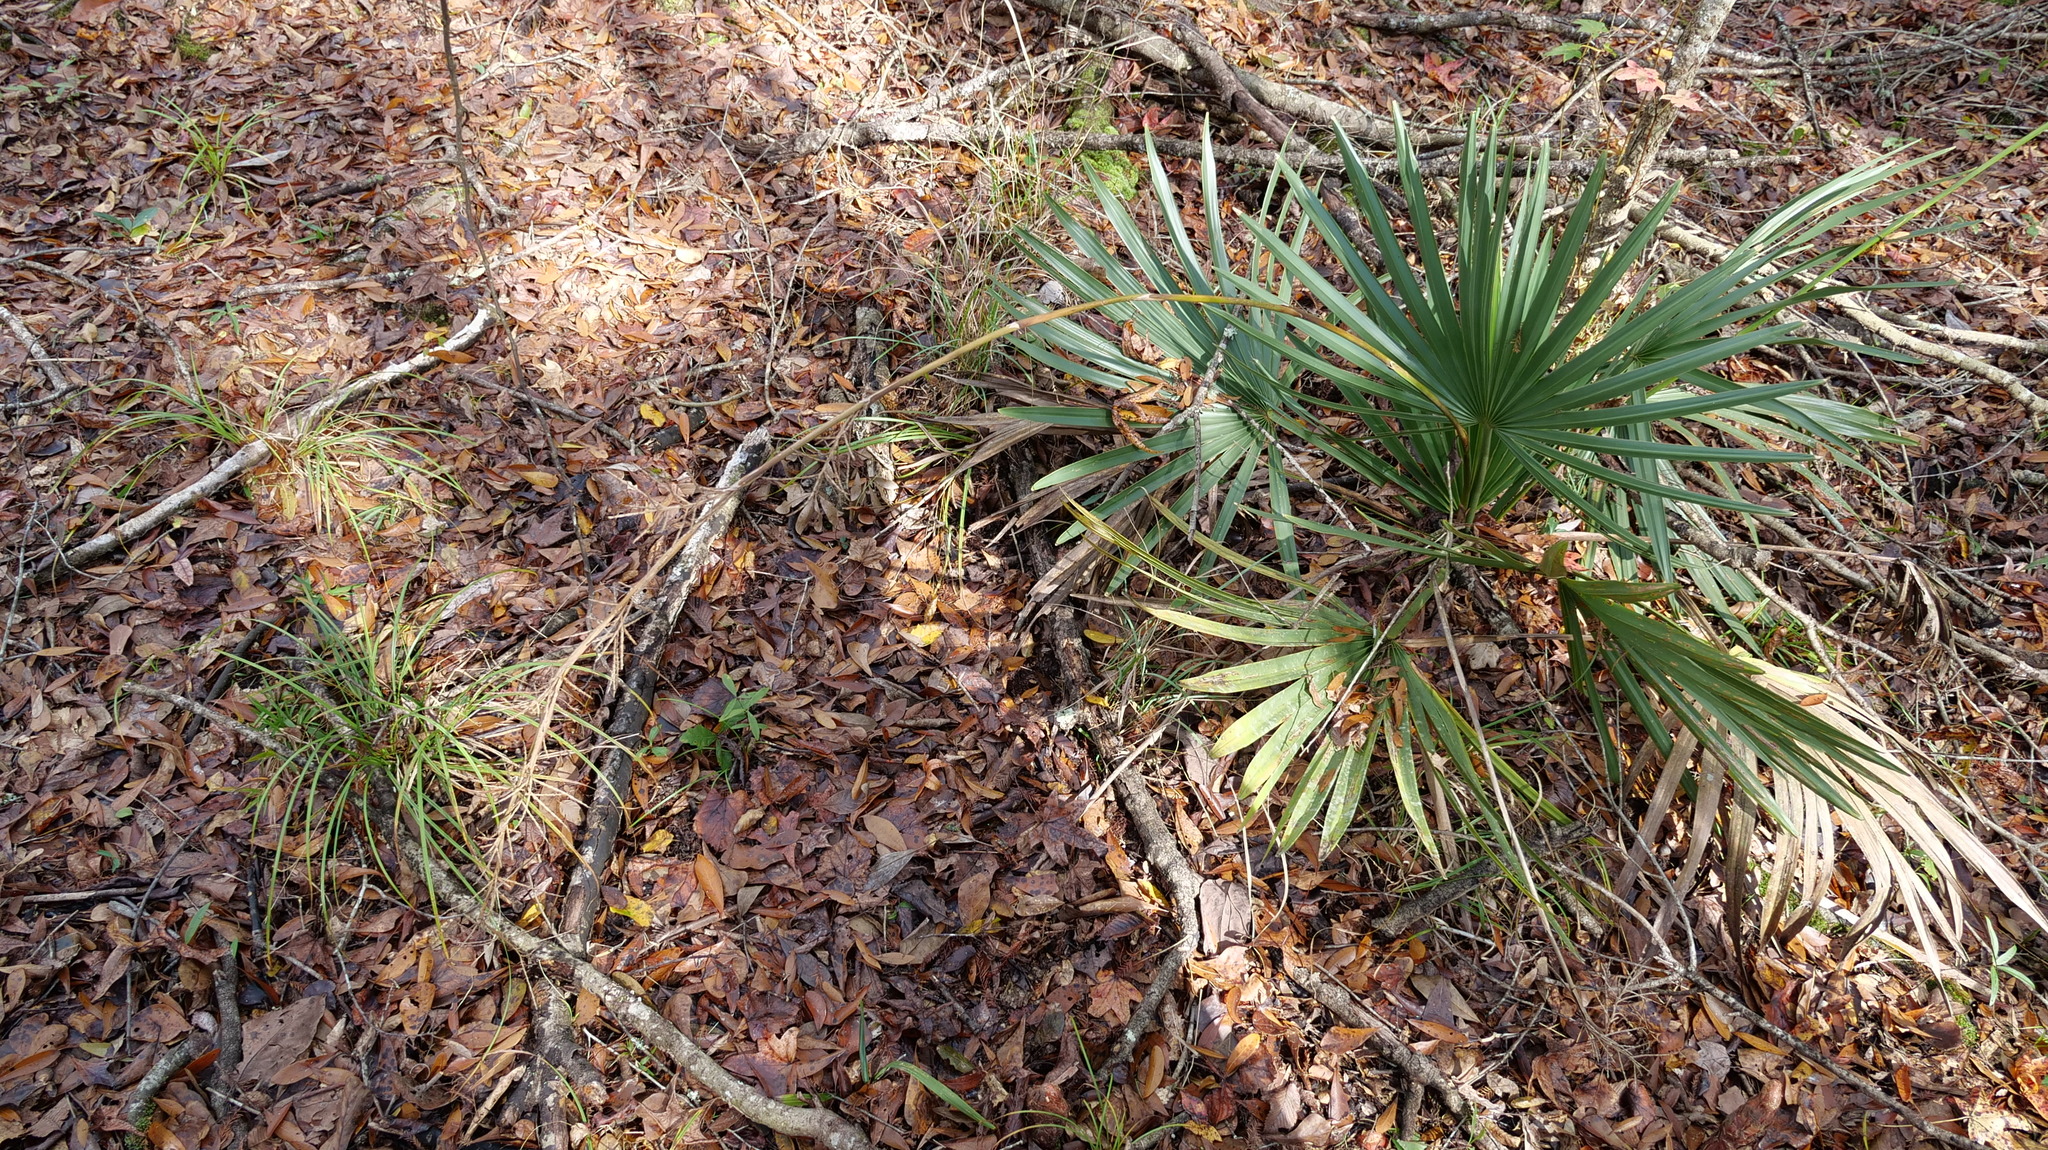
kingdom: Plantae
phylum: Tracheophyta
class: Liliopsida
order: Arecales
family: Arecaceae
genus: Sabal
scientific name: Sabal minor
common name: Dwarf palmetto
